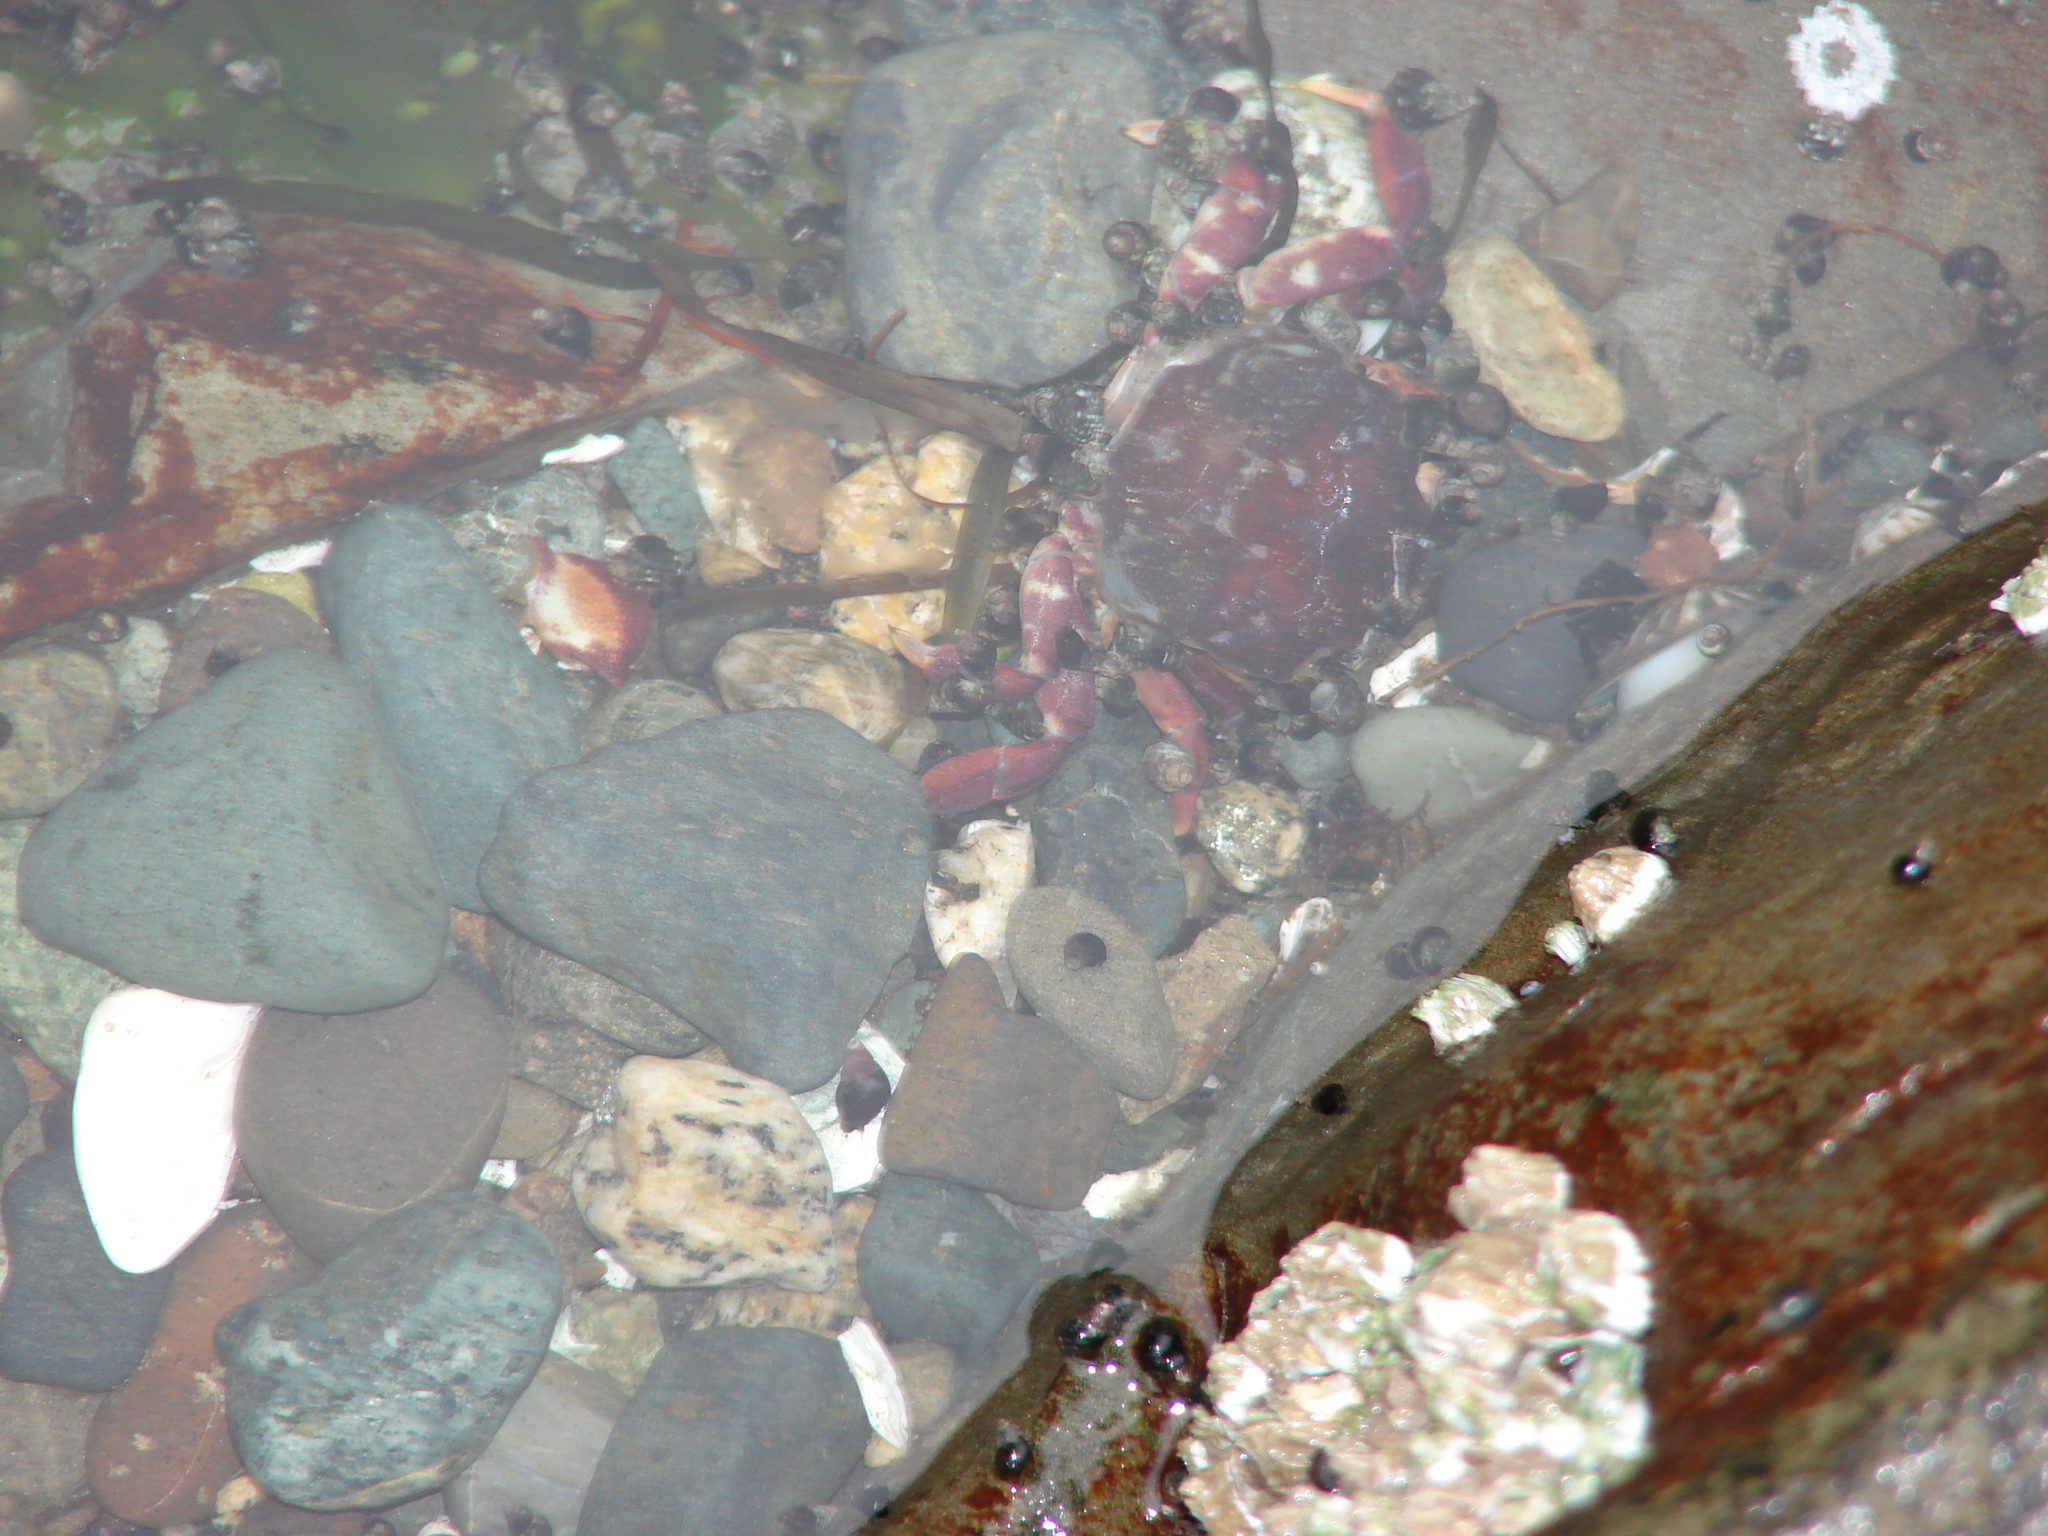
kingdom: Animalia
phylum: Arthropoda
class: Malacostraca
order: Decapoda
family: Varunidae
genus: Hemigrapsus
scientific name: Hemigrapsus nudus
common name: Purple shore crab
